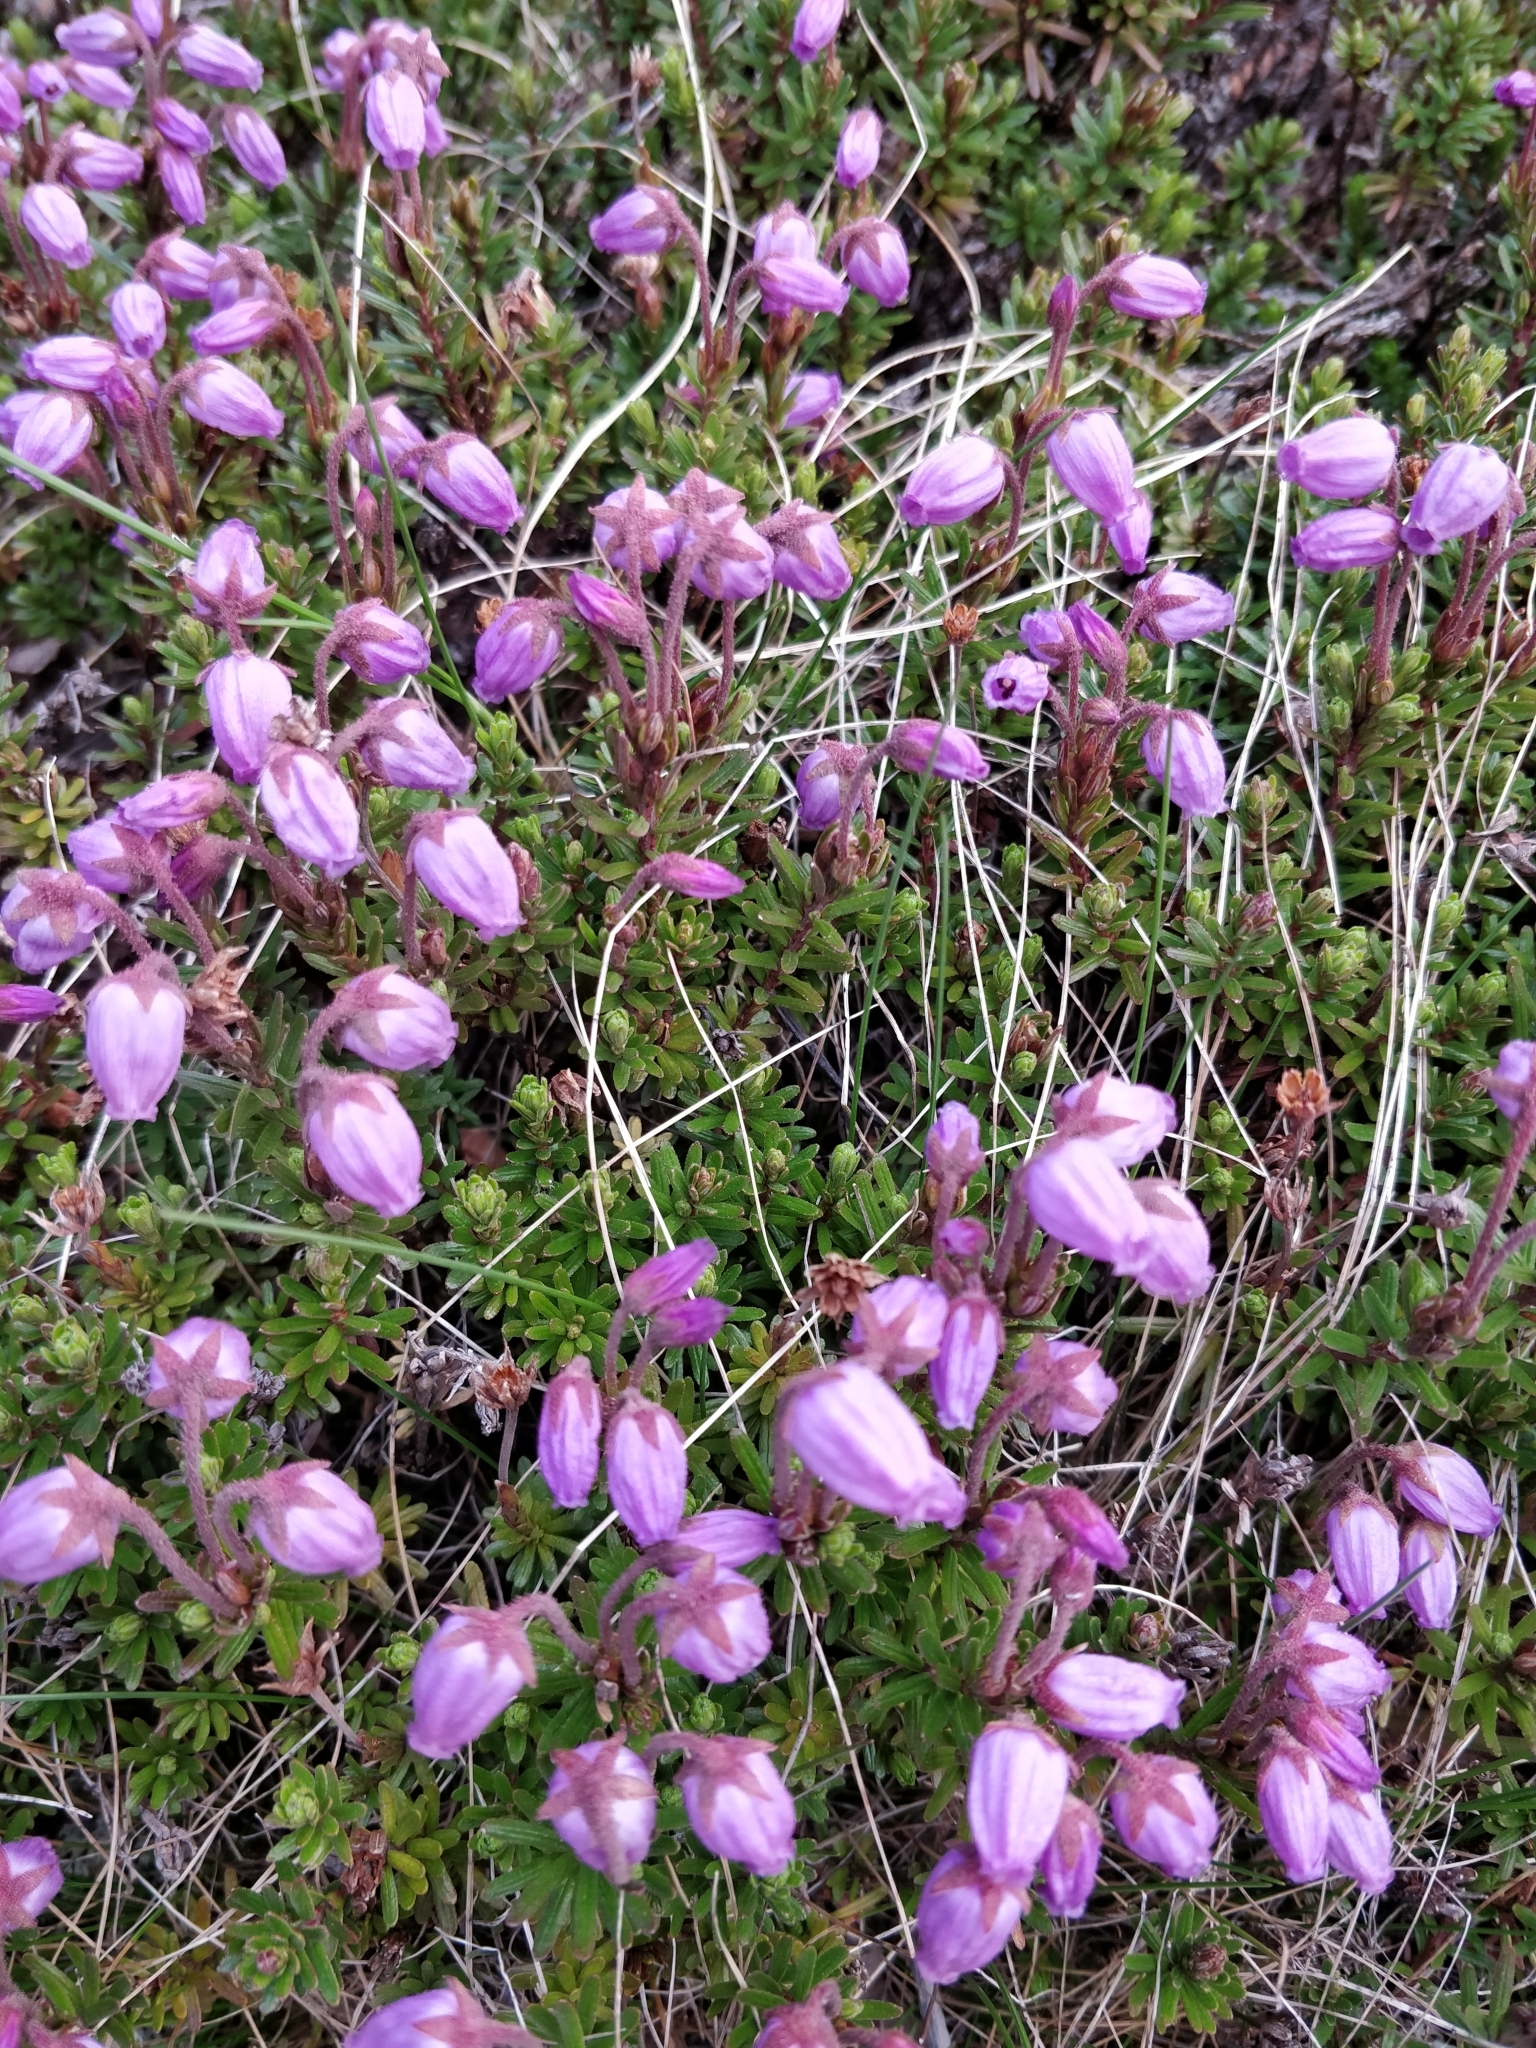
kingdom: Plantae
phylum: Tracheophyta
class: Magnoliopsida
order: Ericales
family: Ericaceae
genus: Phyllodoce
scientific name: Phyllodoce caerulea
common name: Blue heath
